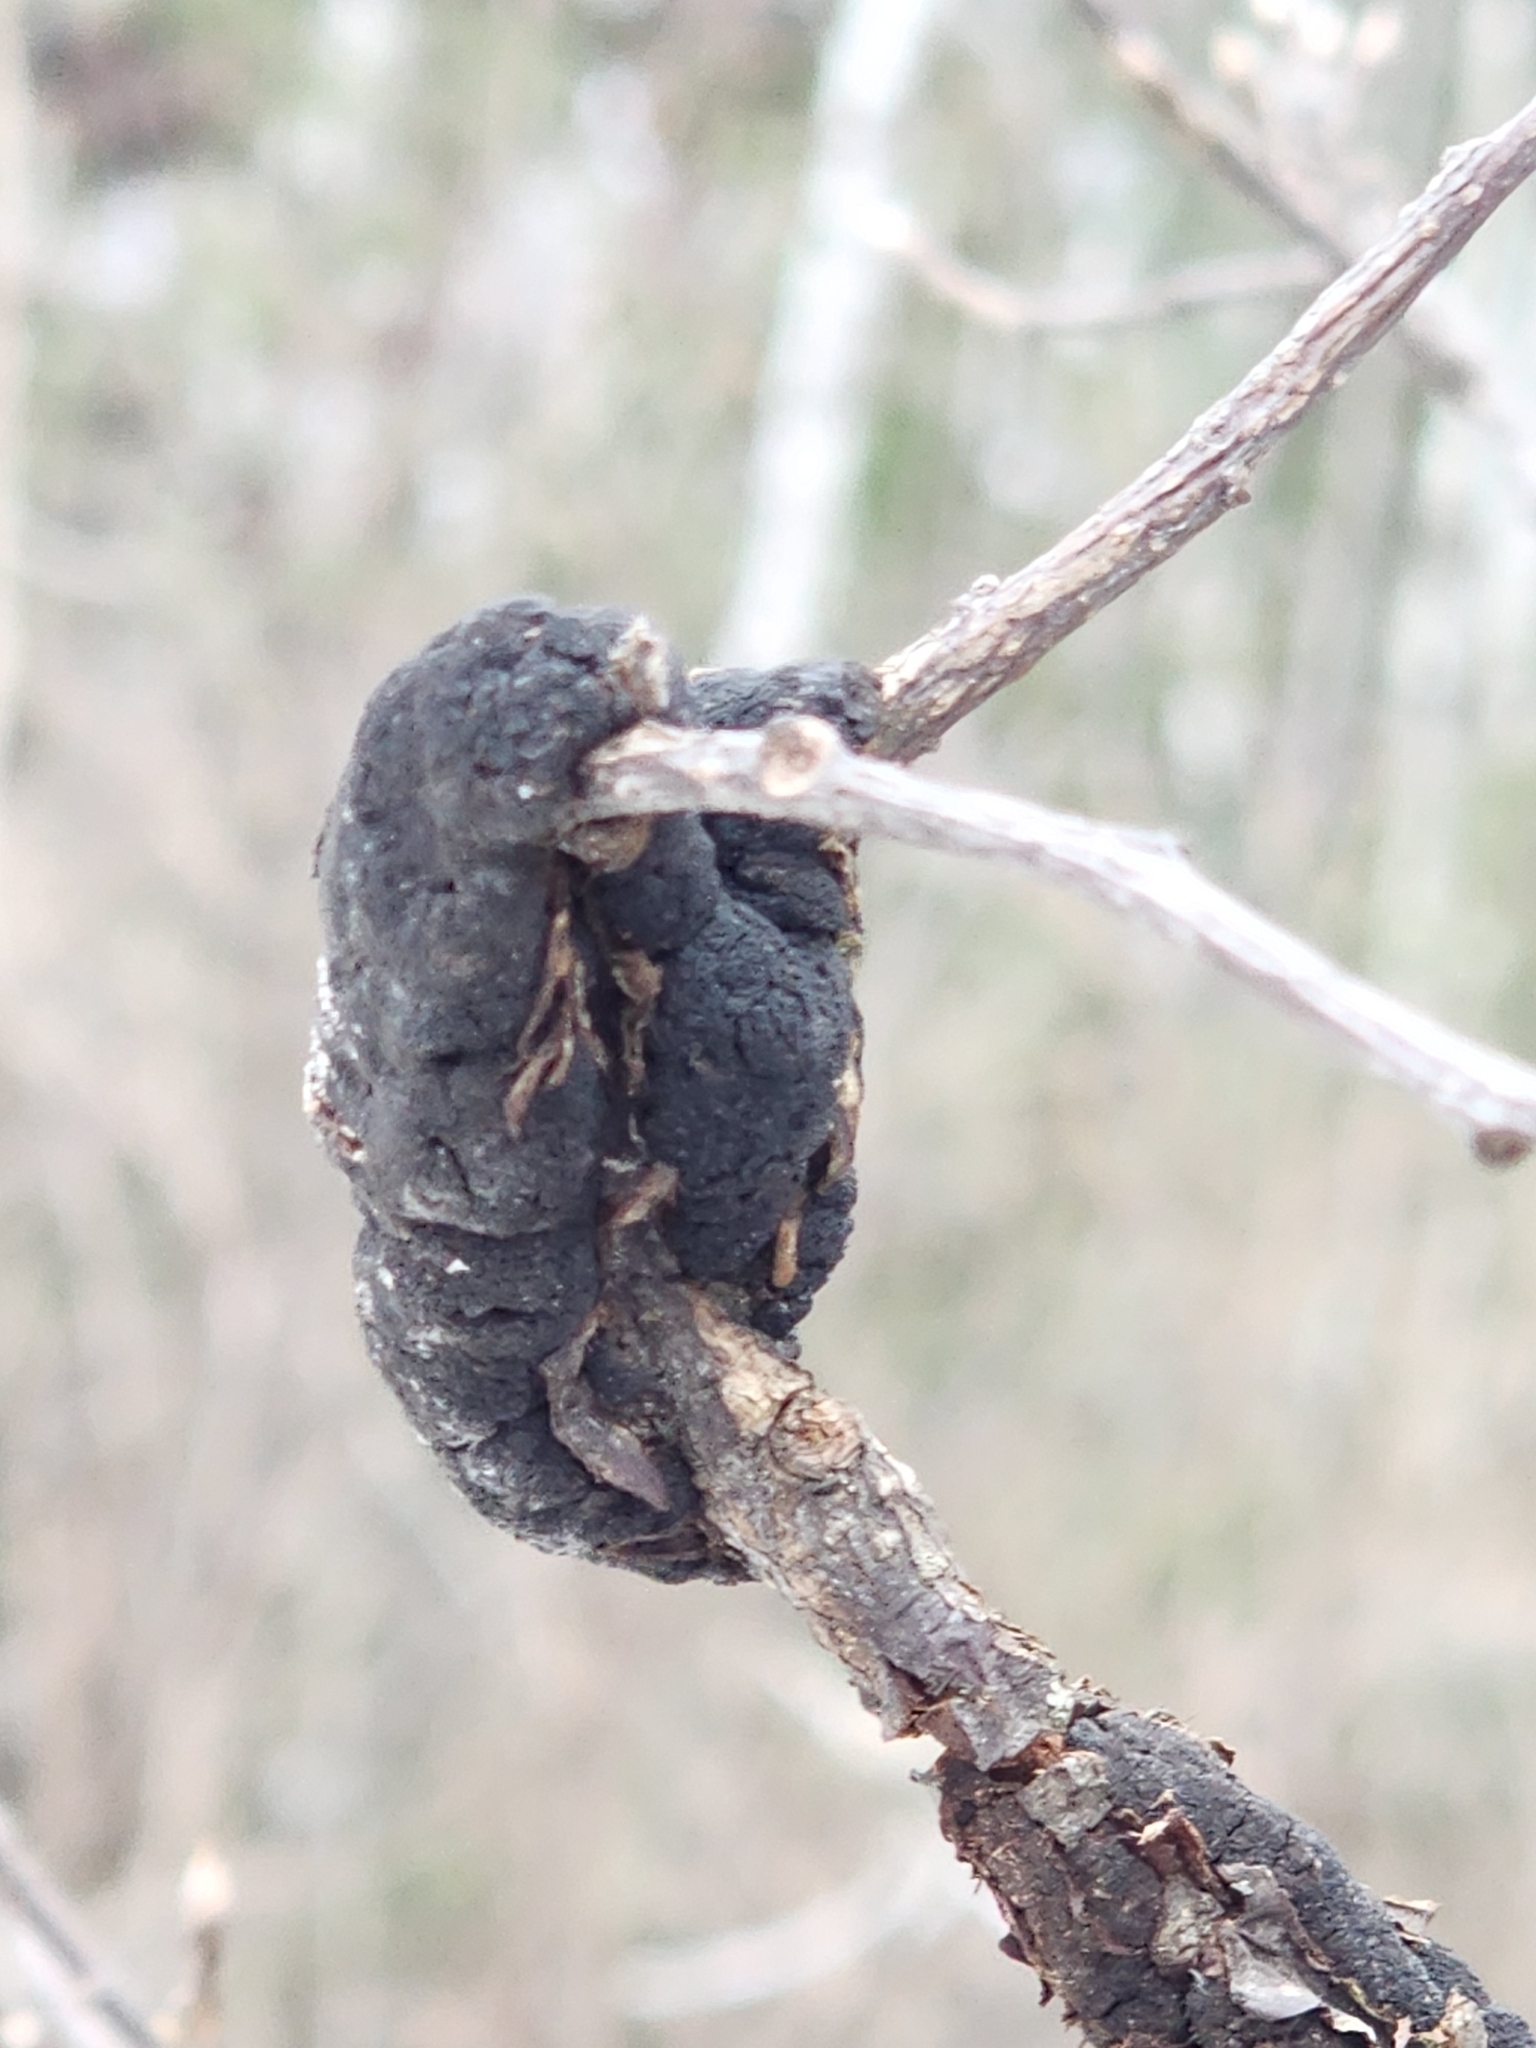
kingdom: Fungi
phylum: Ascomycota
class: Dothideomycetes
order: Venturiales
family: Venturiaceae
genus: Apiosporina
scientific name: Apiosporina morbosa
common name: Black knot
